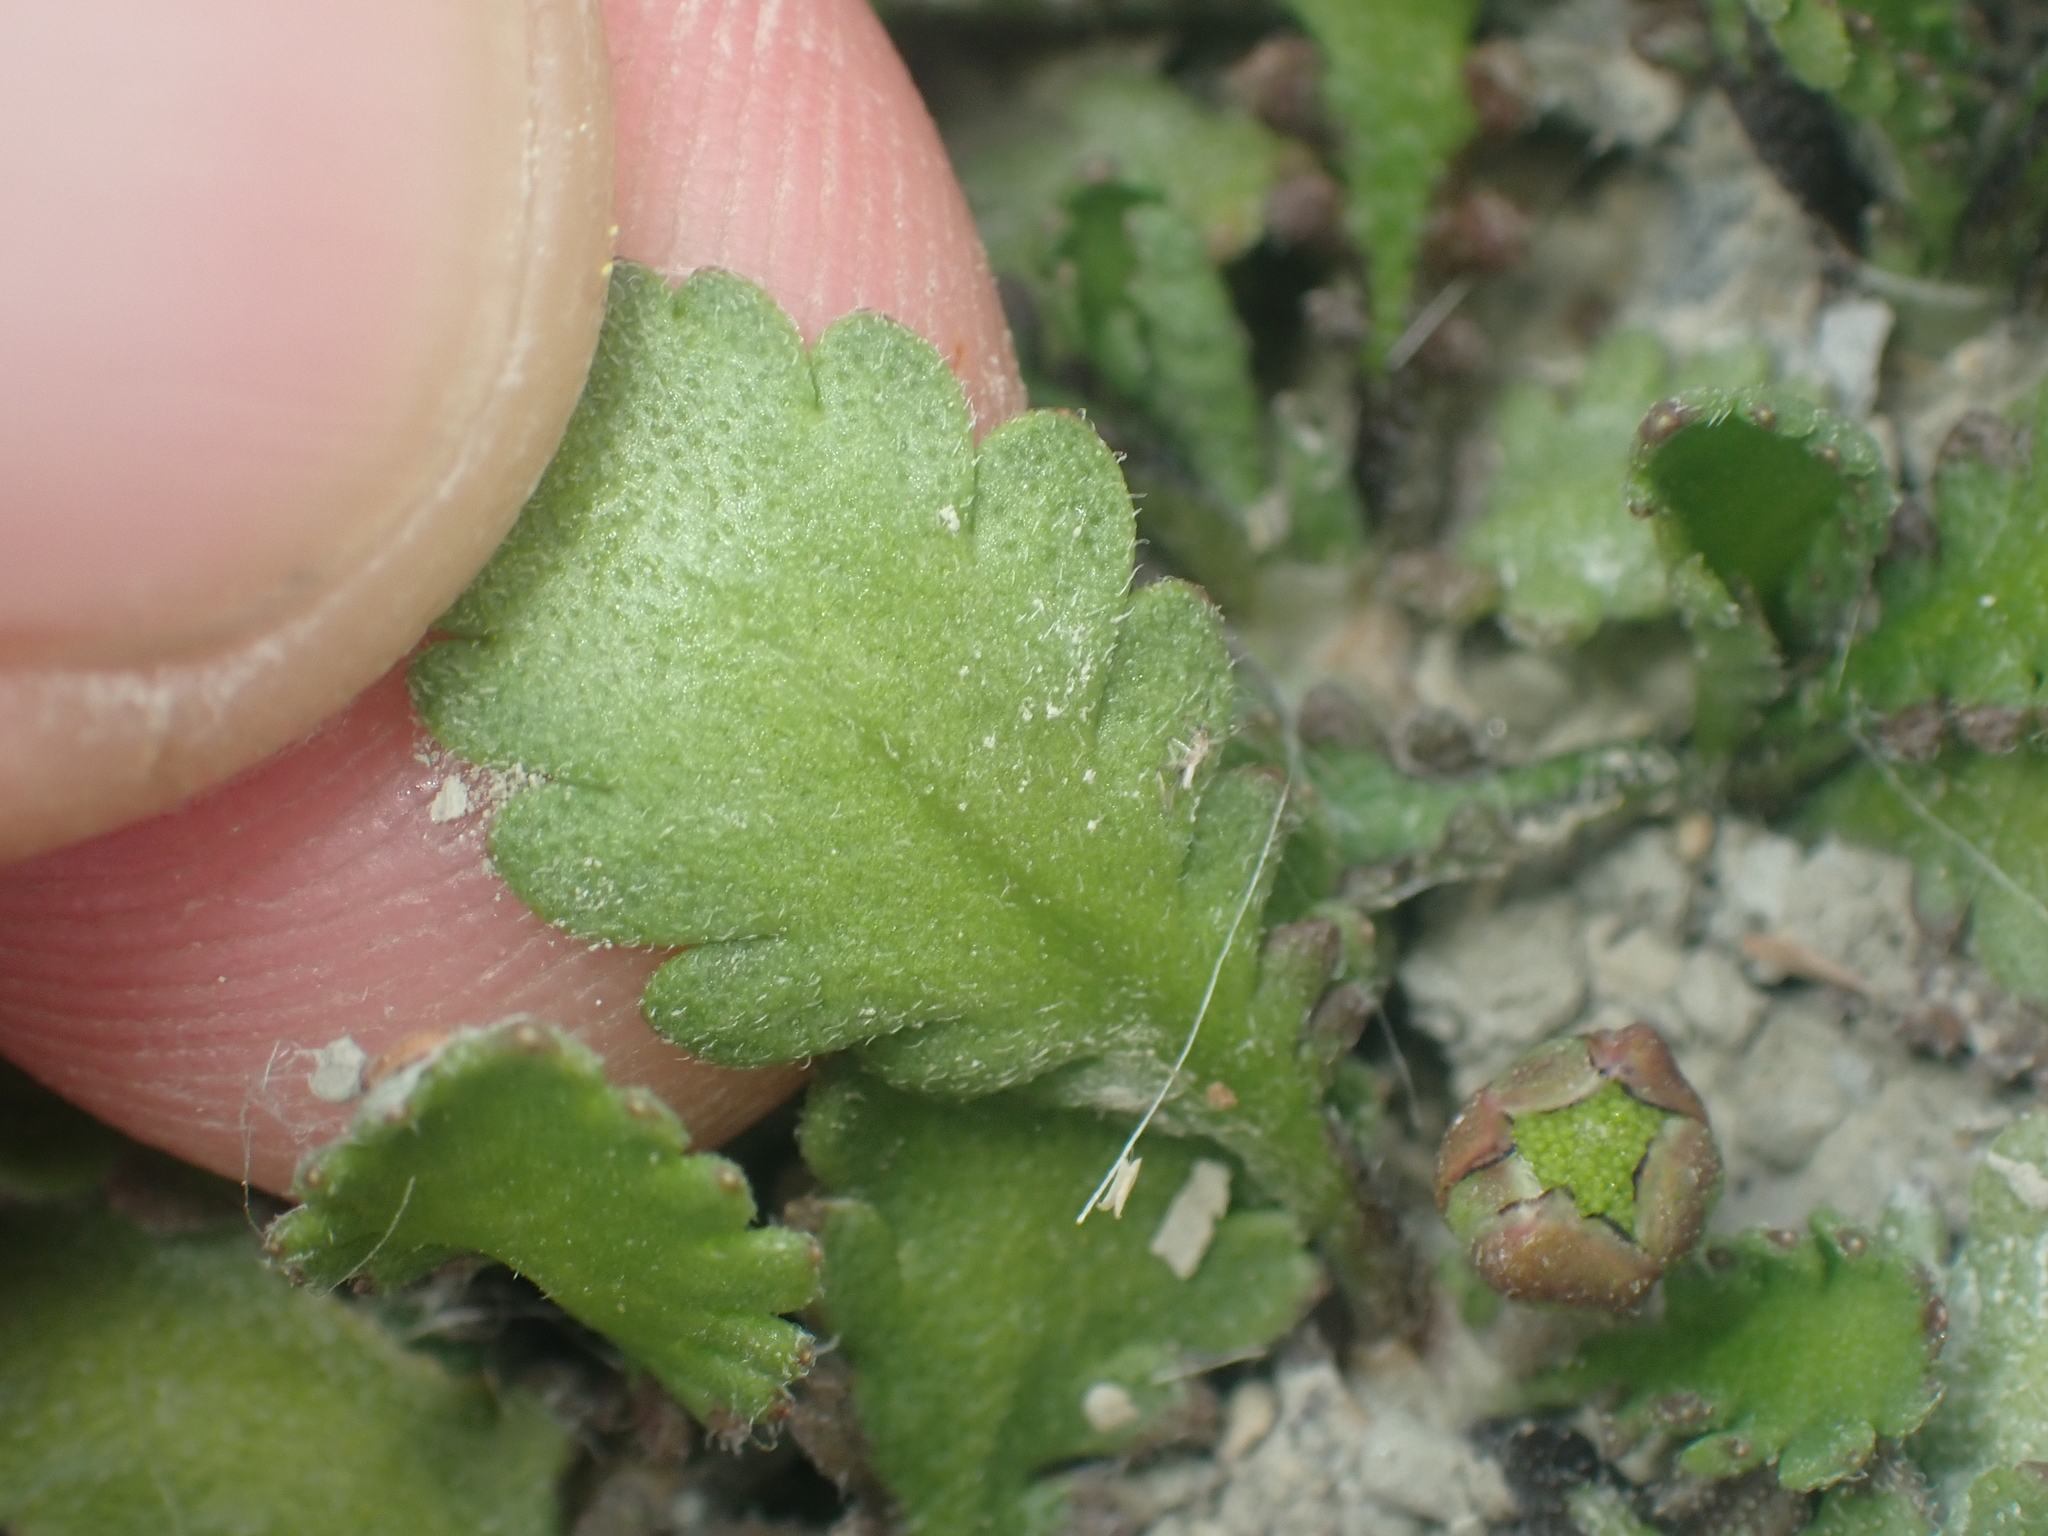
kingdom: Plantae
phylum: Tracheophyta
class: Magnoliopsida
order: Asterales
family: Asteraceae
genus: Leptinella
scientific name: Leptinella dioica
